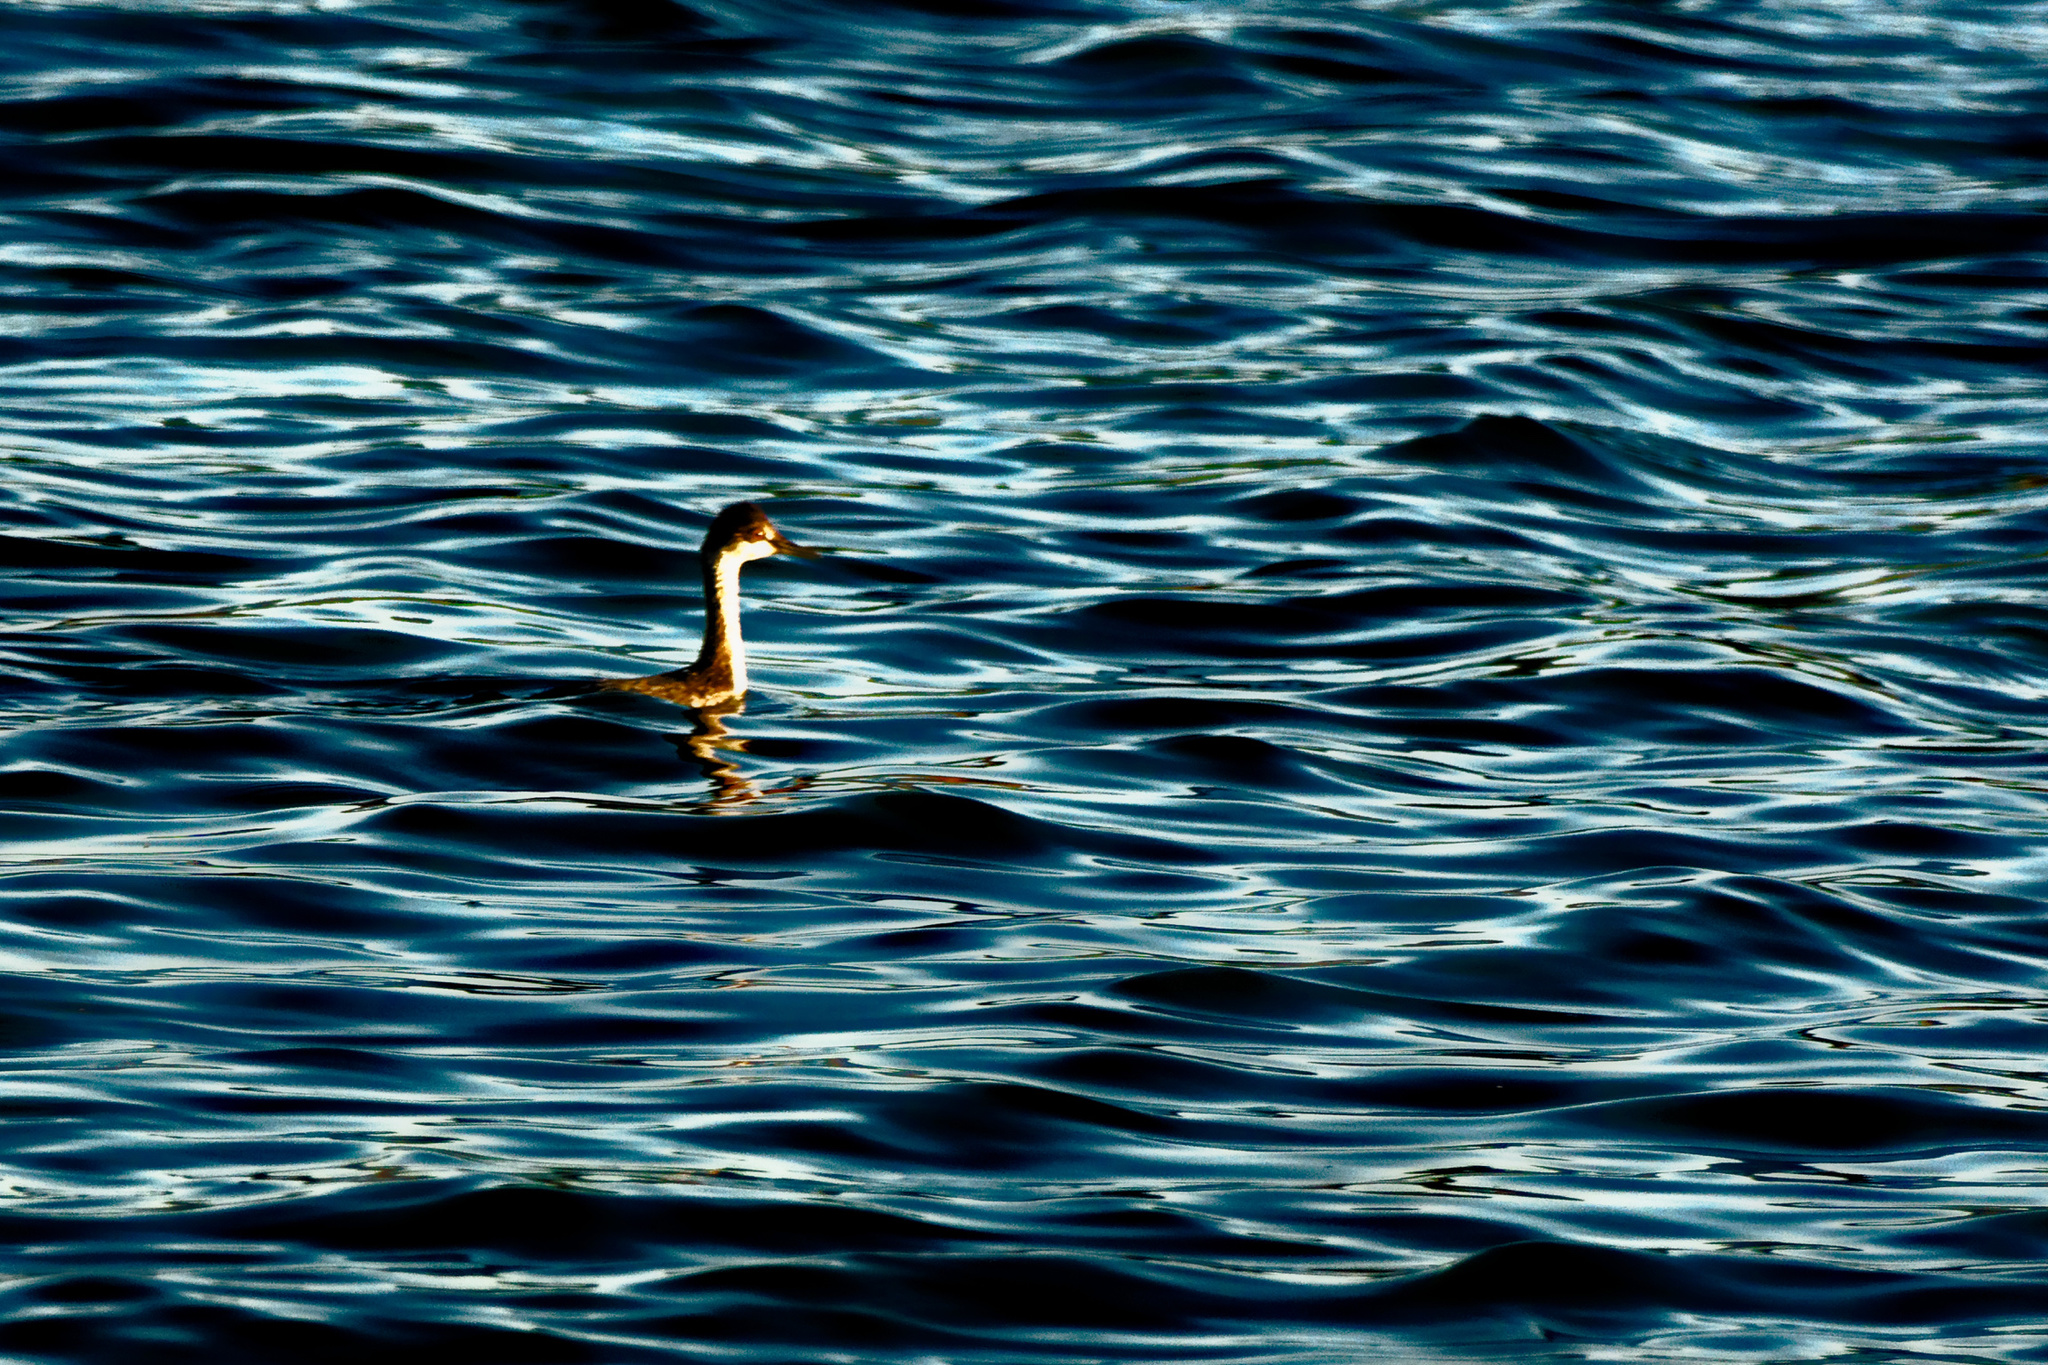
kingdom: Animalia
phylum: Chordata
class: Aves
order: Podicipediformes
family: Podicipedidae
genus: Podiceps
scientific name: Podiceps nigricollis
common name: Black-necked grebe
